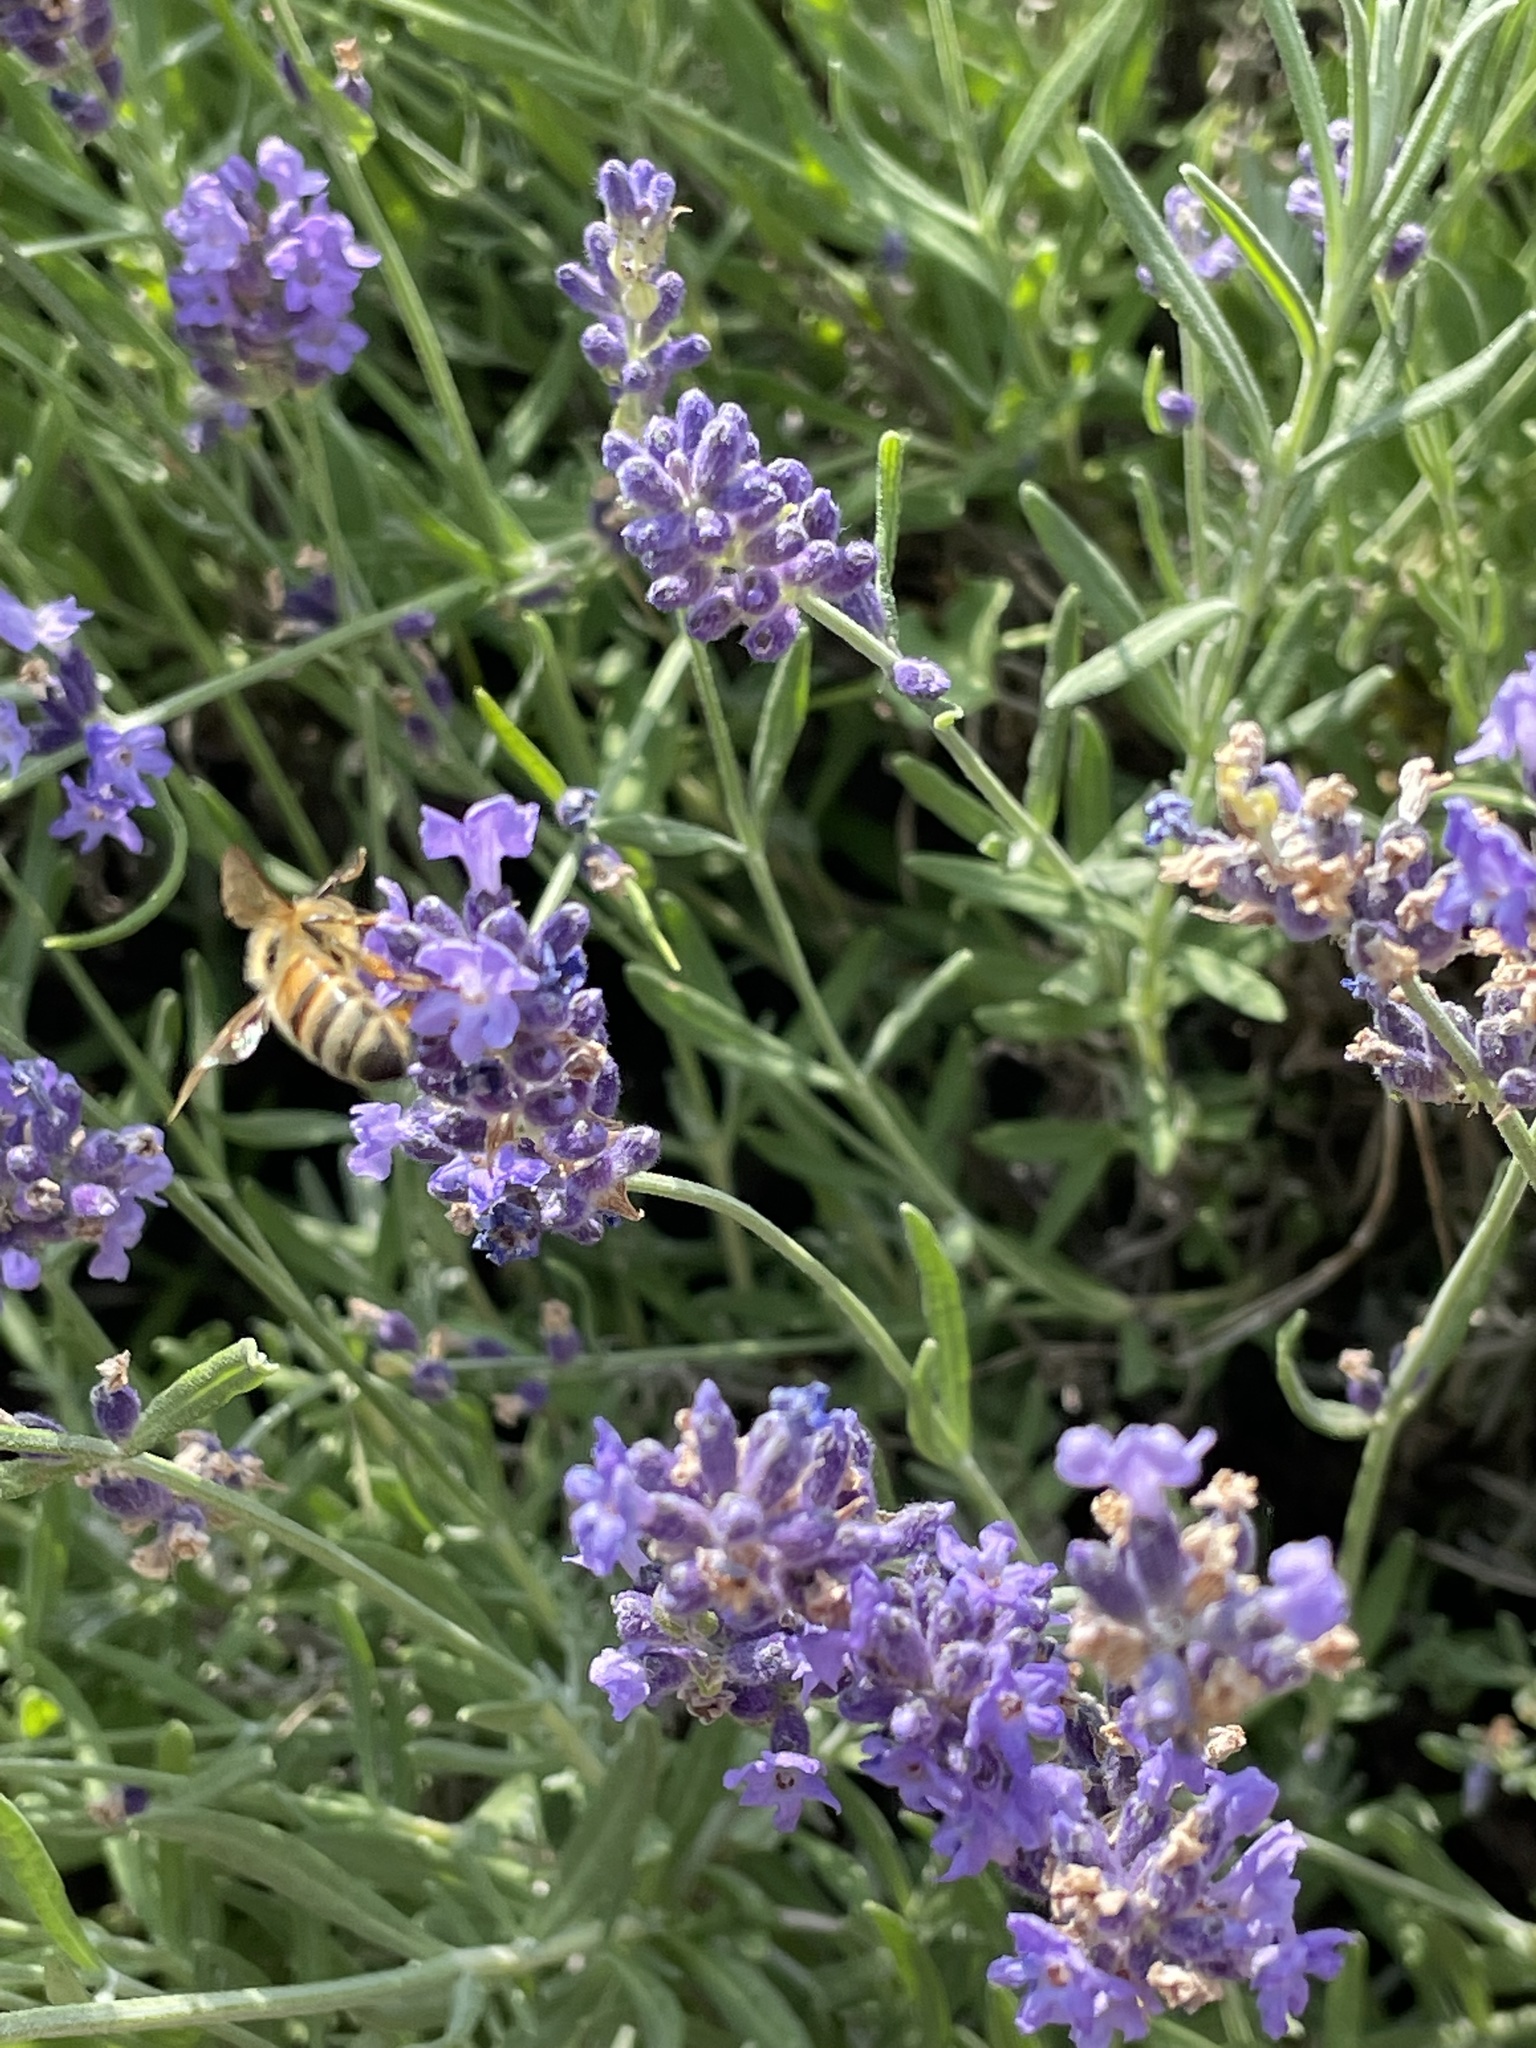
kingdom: Animalia
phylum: Arthropoda
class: Insecta
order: Hymenoptera
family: Apidae
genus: Apis
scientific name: Apis mellifera
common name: Honey bee
